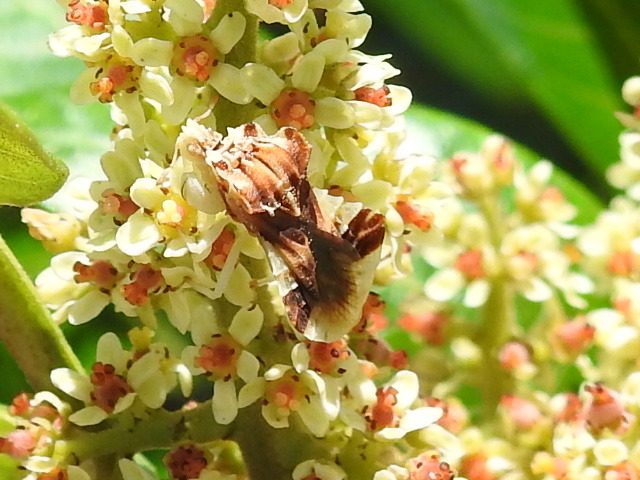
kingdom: Animalia
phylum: Arthropoda
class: Insecta
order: Hemiptera
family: Reduviidae
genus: Phymata
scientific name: Phymata fasciata
